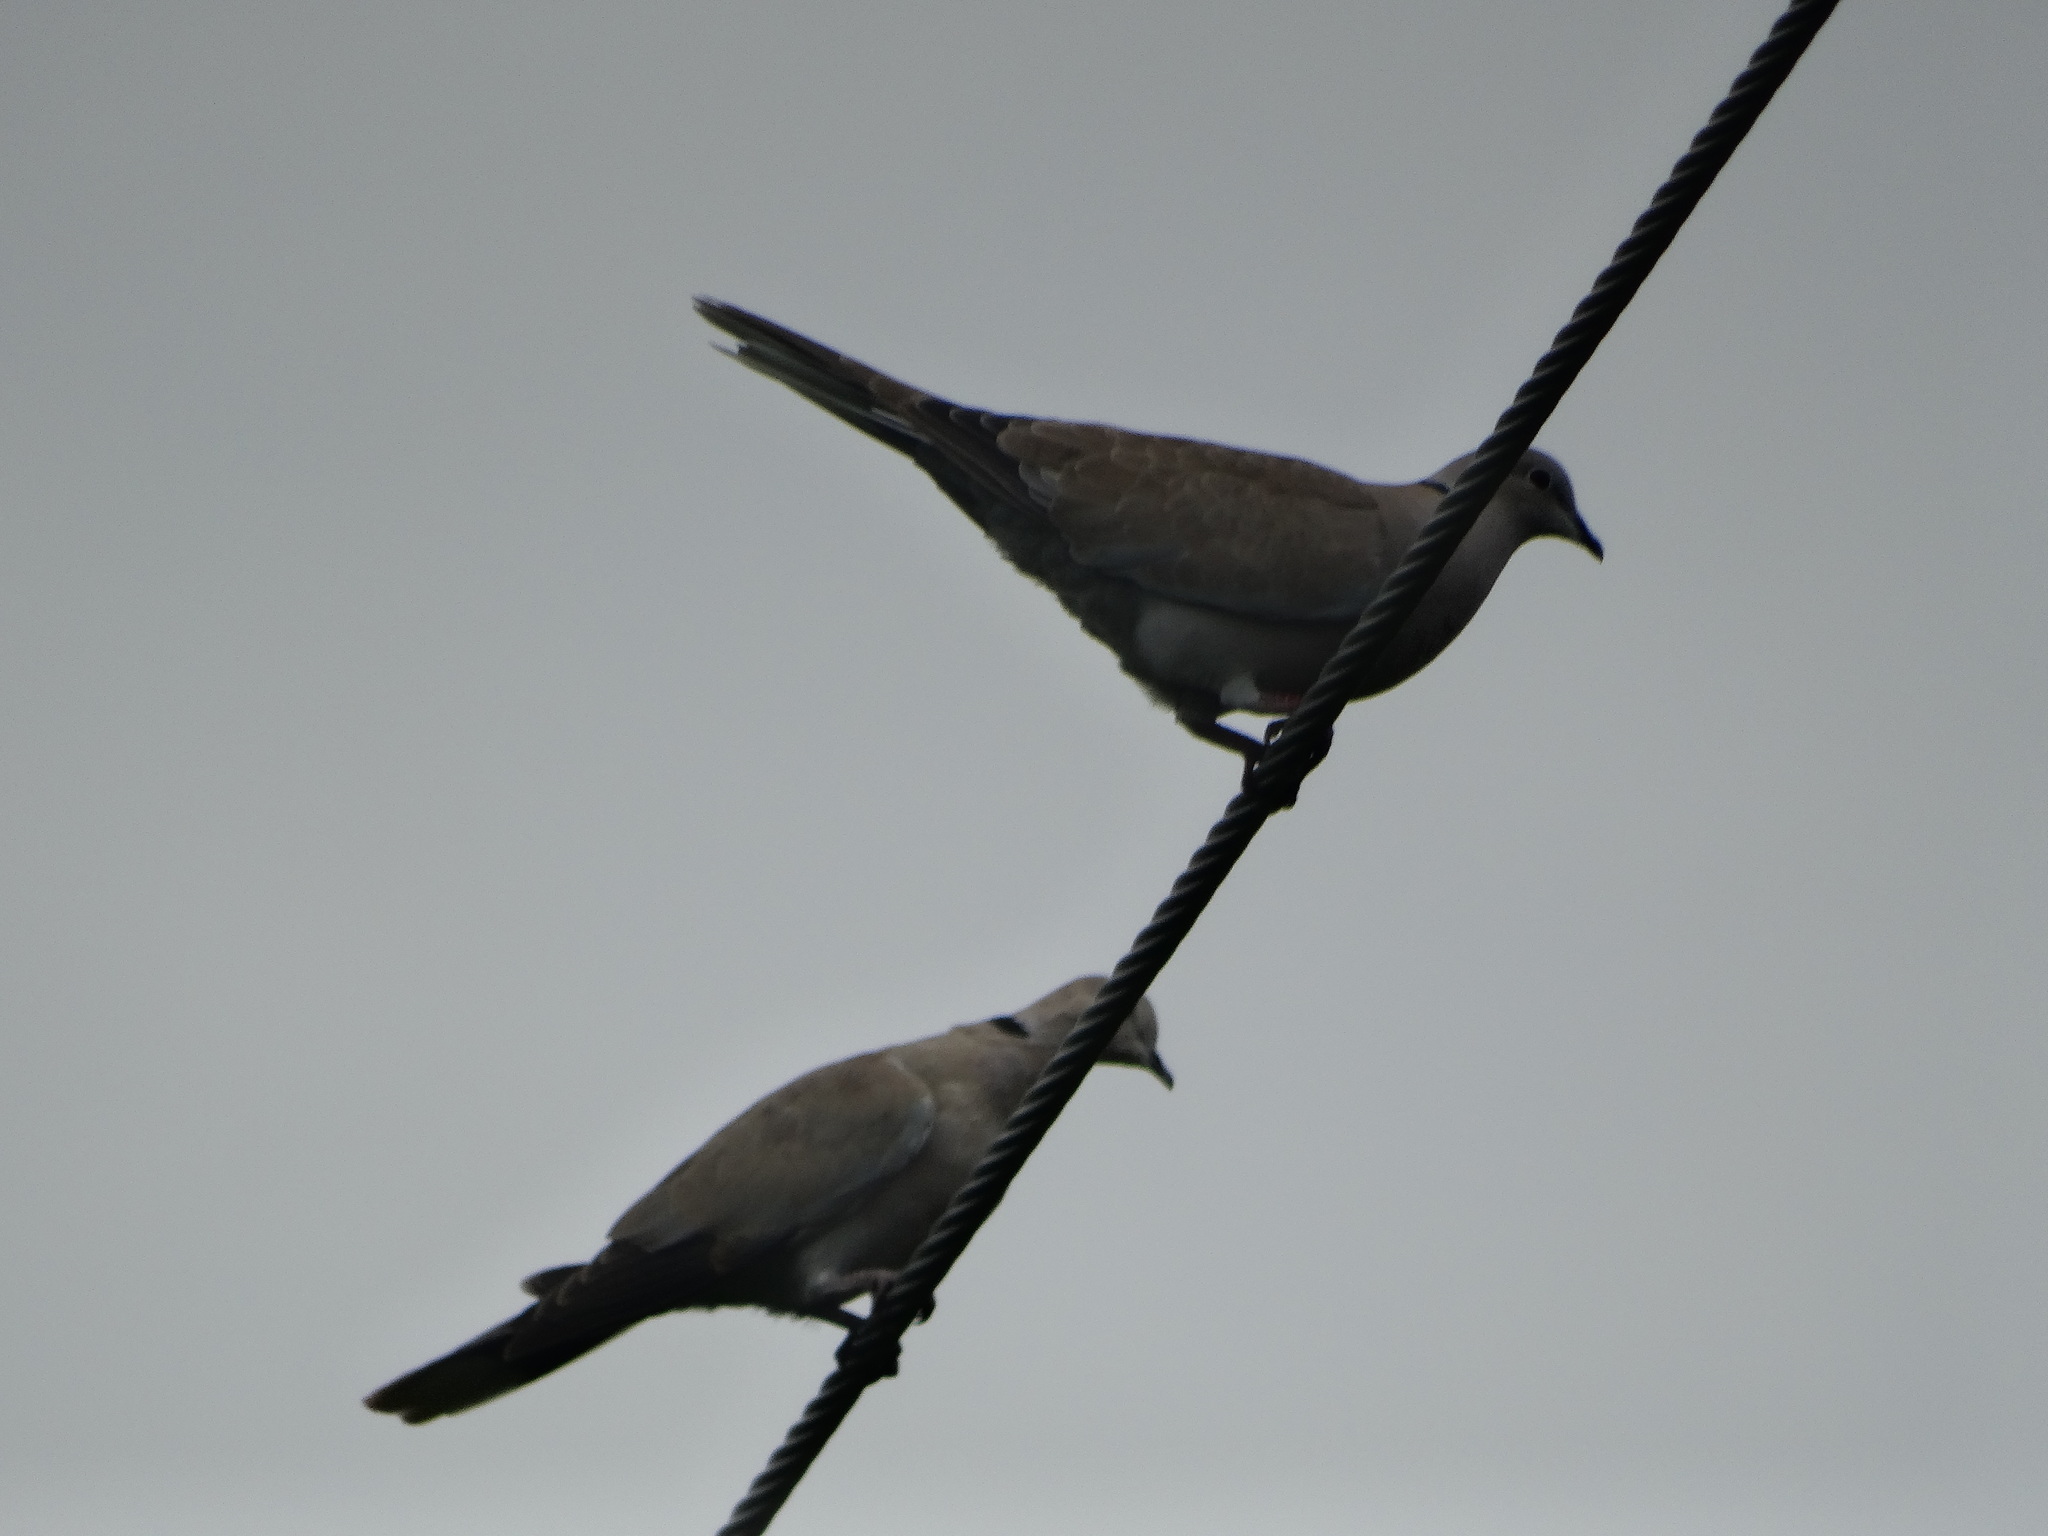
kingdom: Animalia
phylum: Chordata
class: Aves
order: Columbiformes
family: Columbidae
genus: Streptopelia
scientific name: Streptopelia decaocto
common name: Eurasian collared dove
